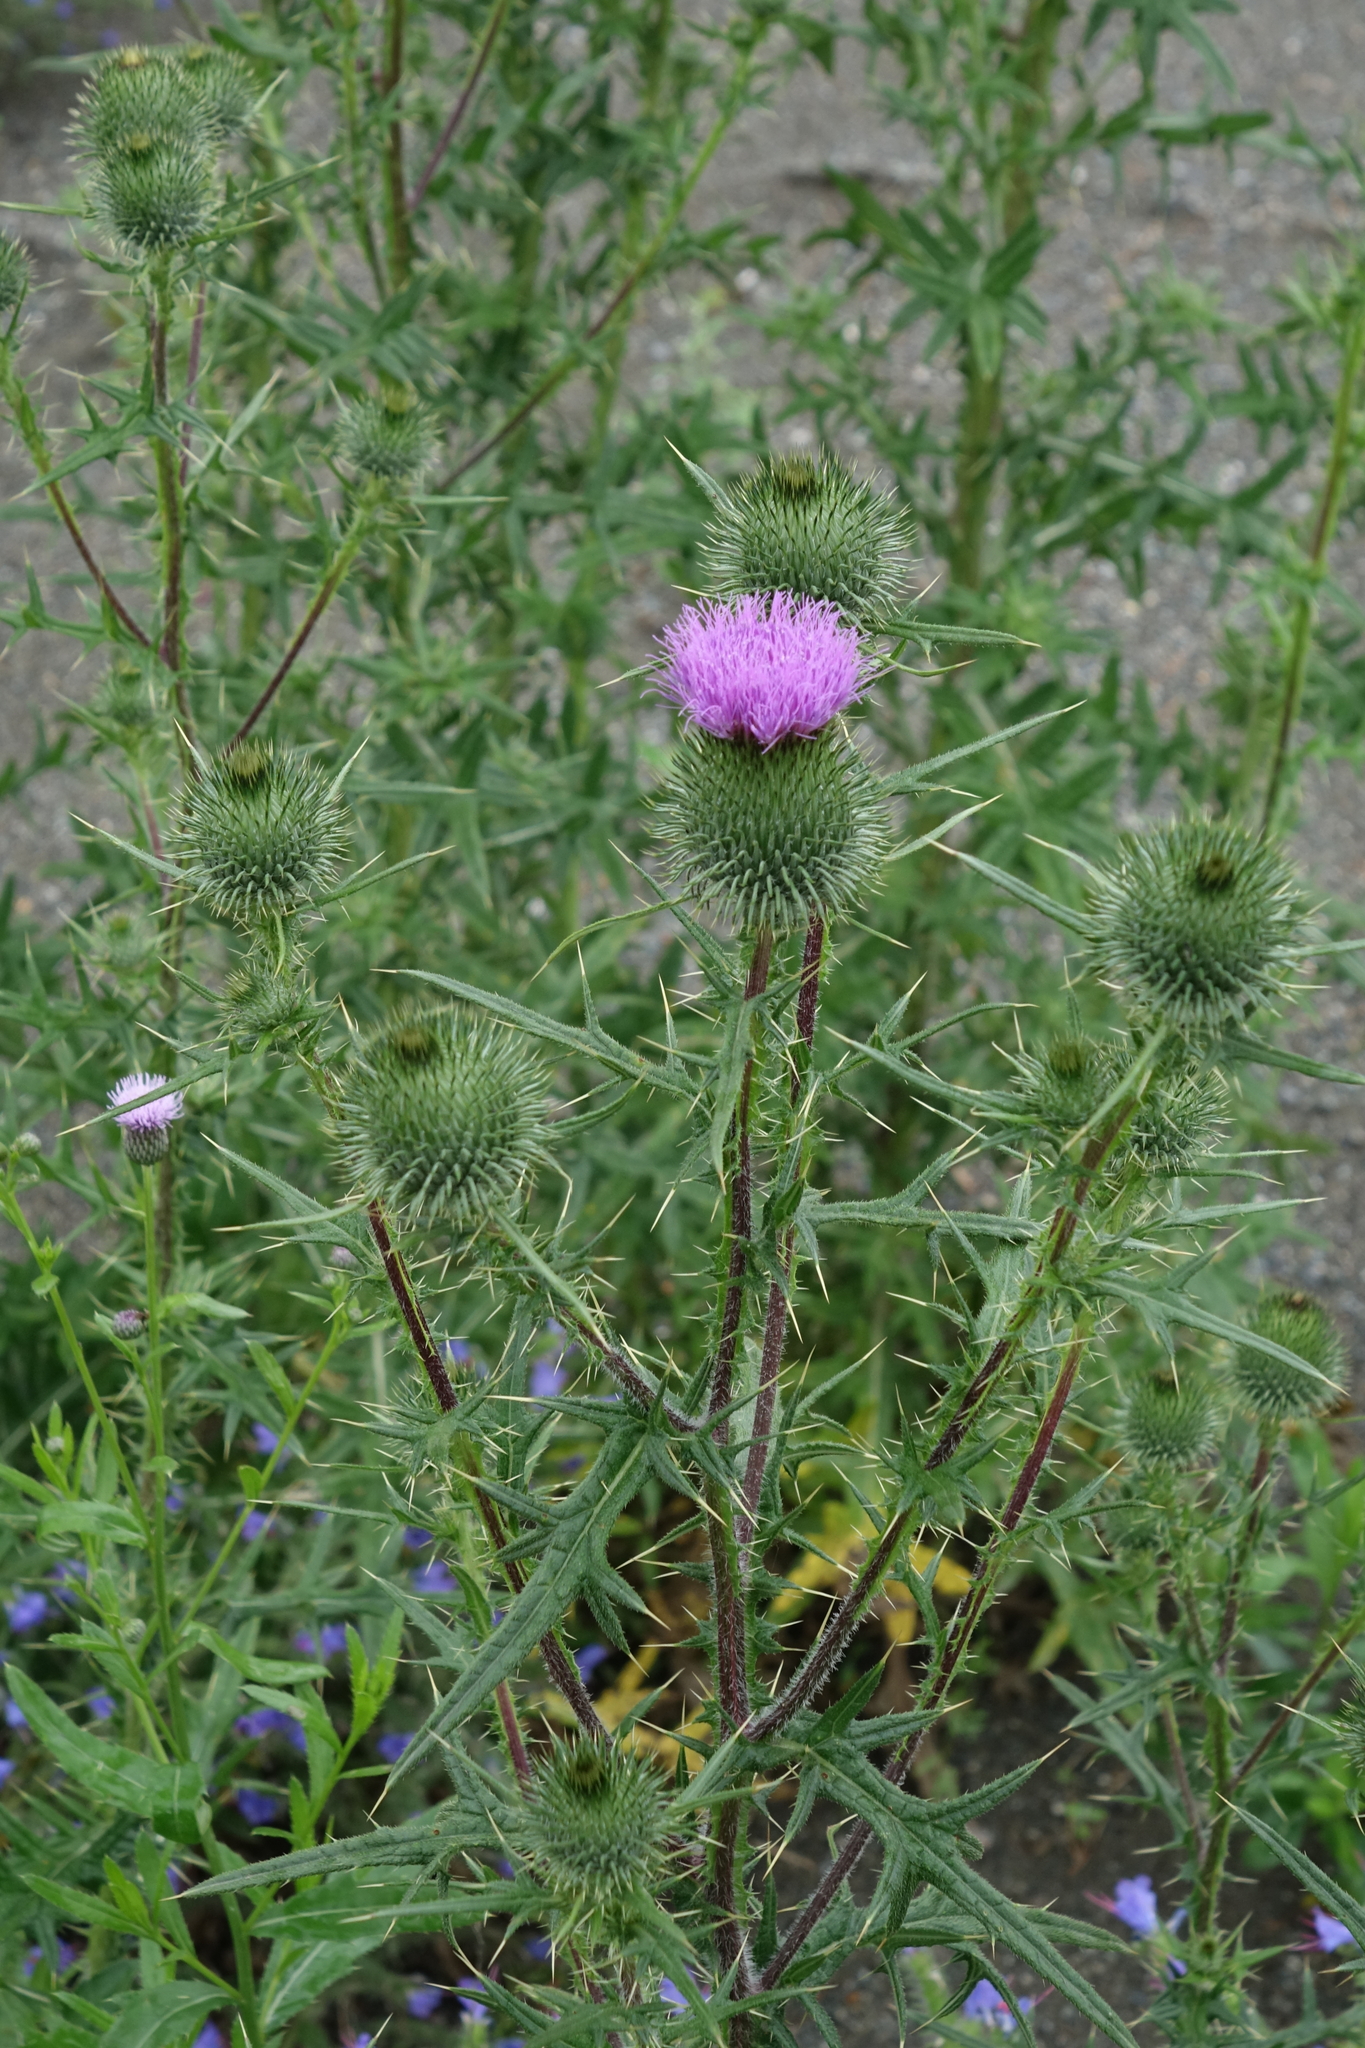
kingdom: Plantae
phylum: Tracheophyta
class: Magnoliopsida
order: Asterales
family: Asteraceae
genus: Cirsium
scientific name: Cirsium vulgare
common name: Bull thistle
